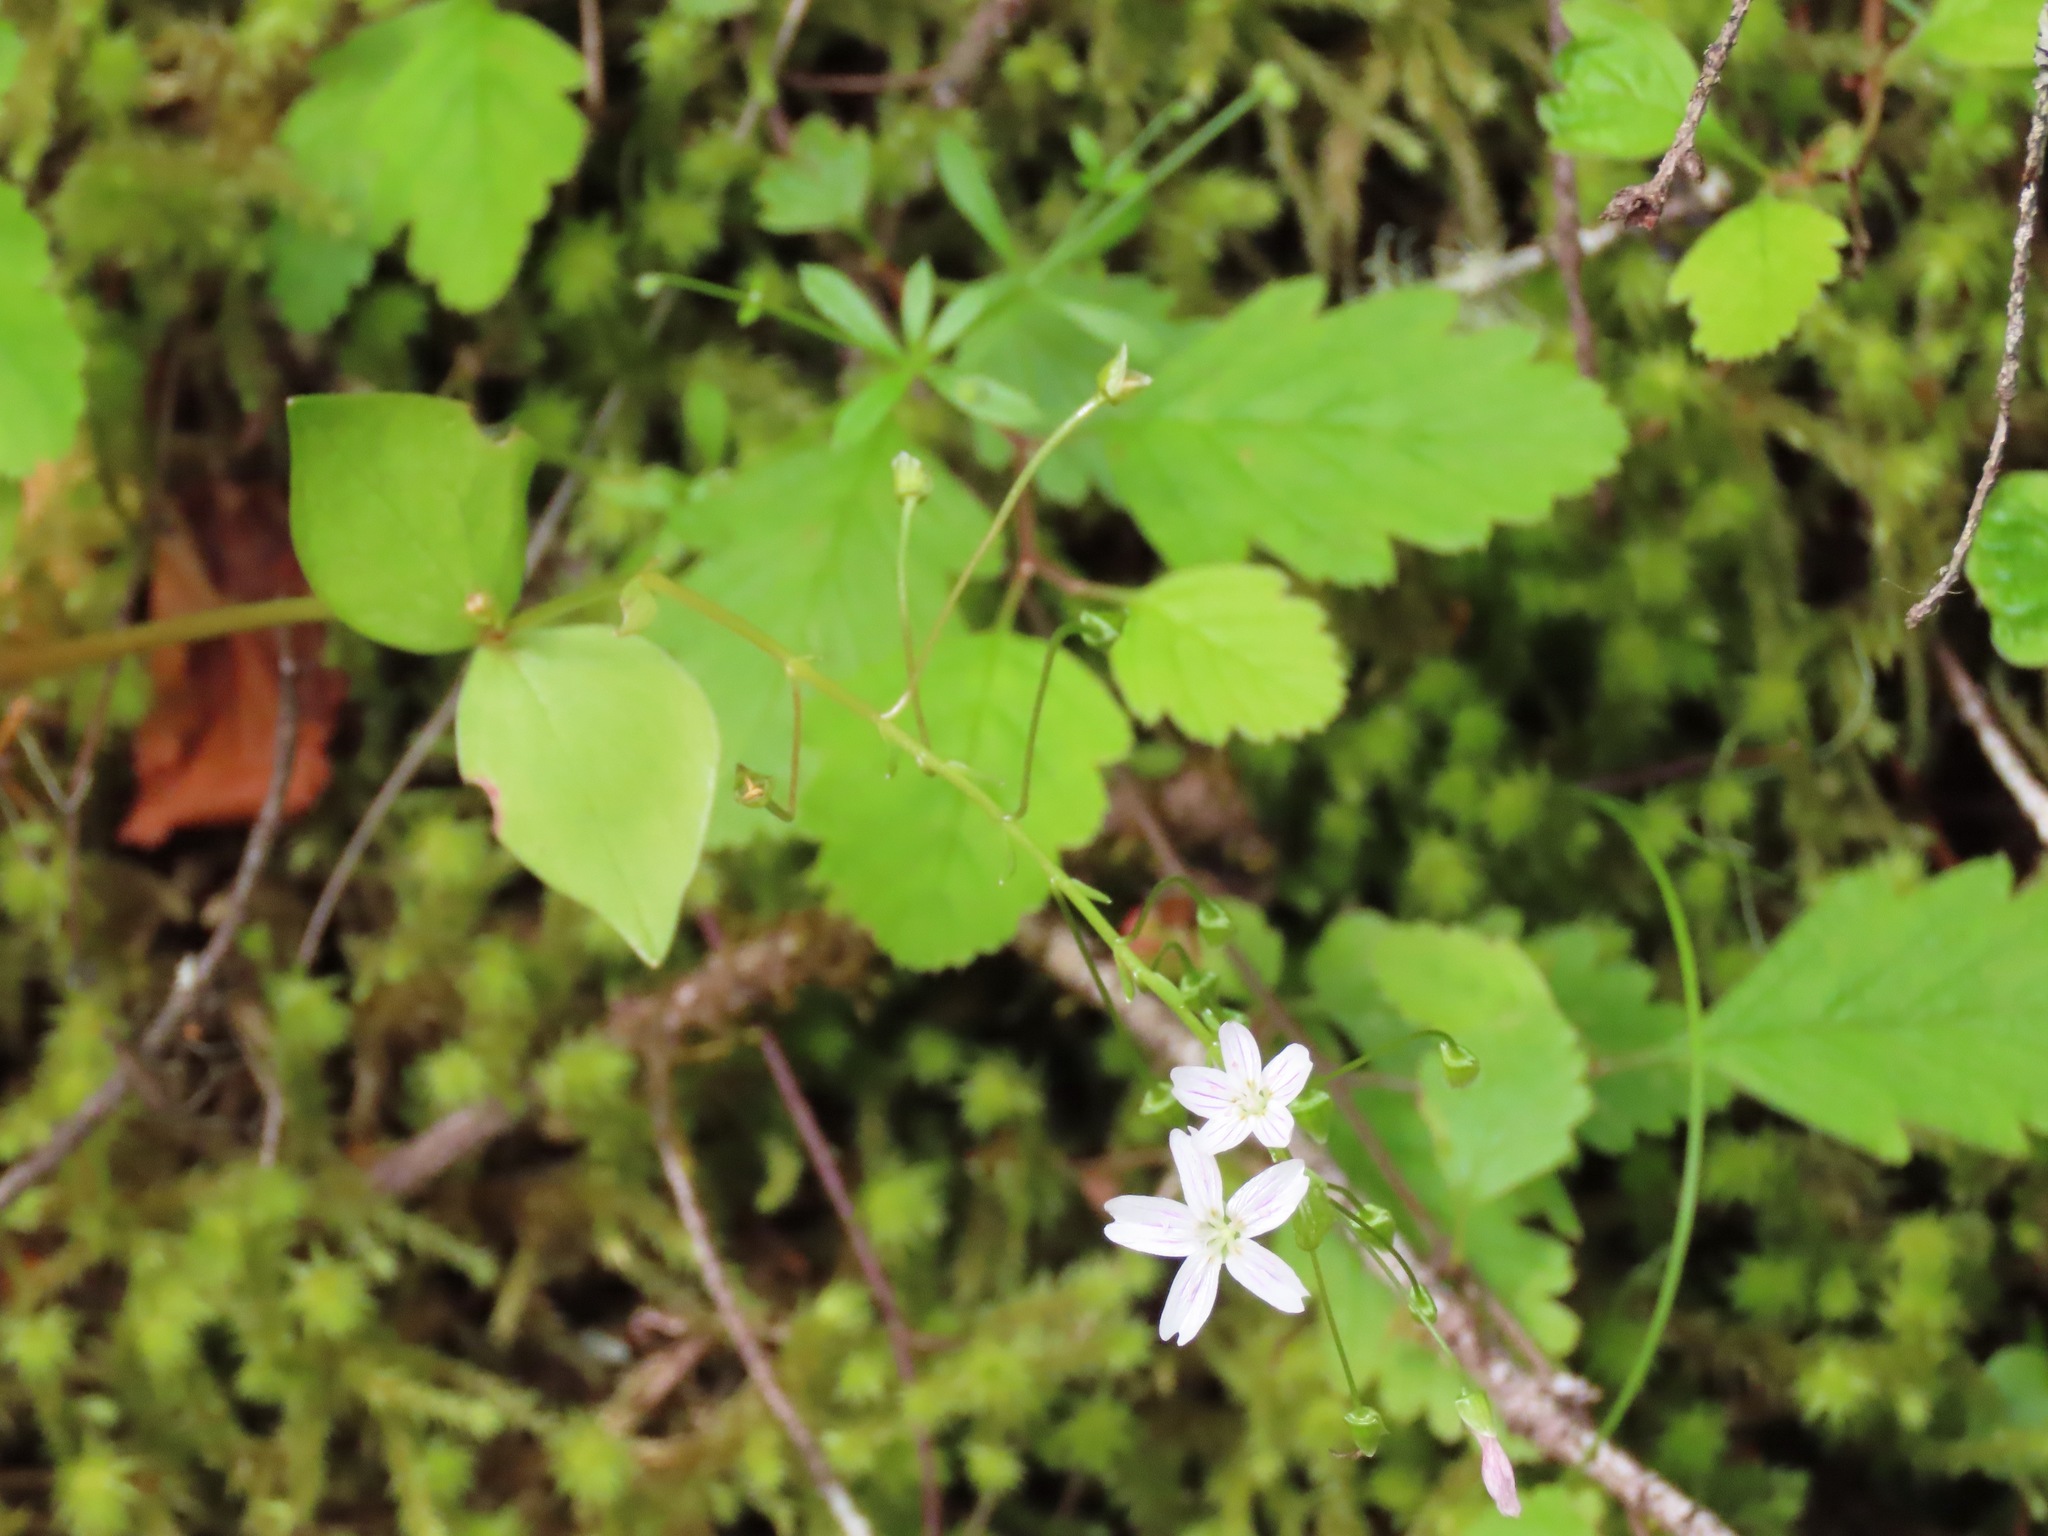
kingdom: Plantae
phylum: Tracheophyta
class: Magnoliopsida
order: Caryophyllales
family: Montiaceae
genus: Claytonia
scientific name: Claytonia sibirica
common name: Pink purslane
